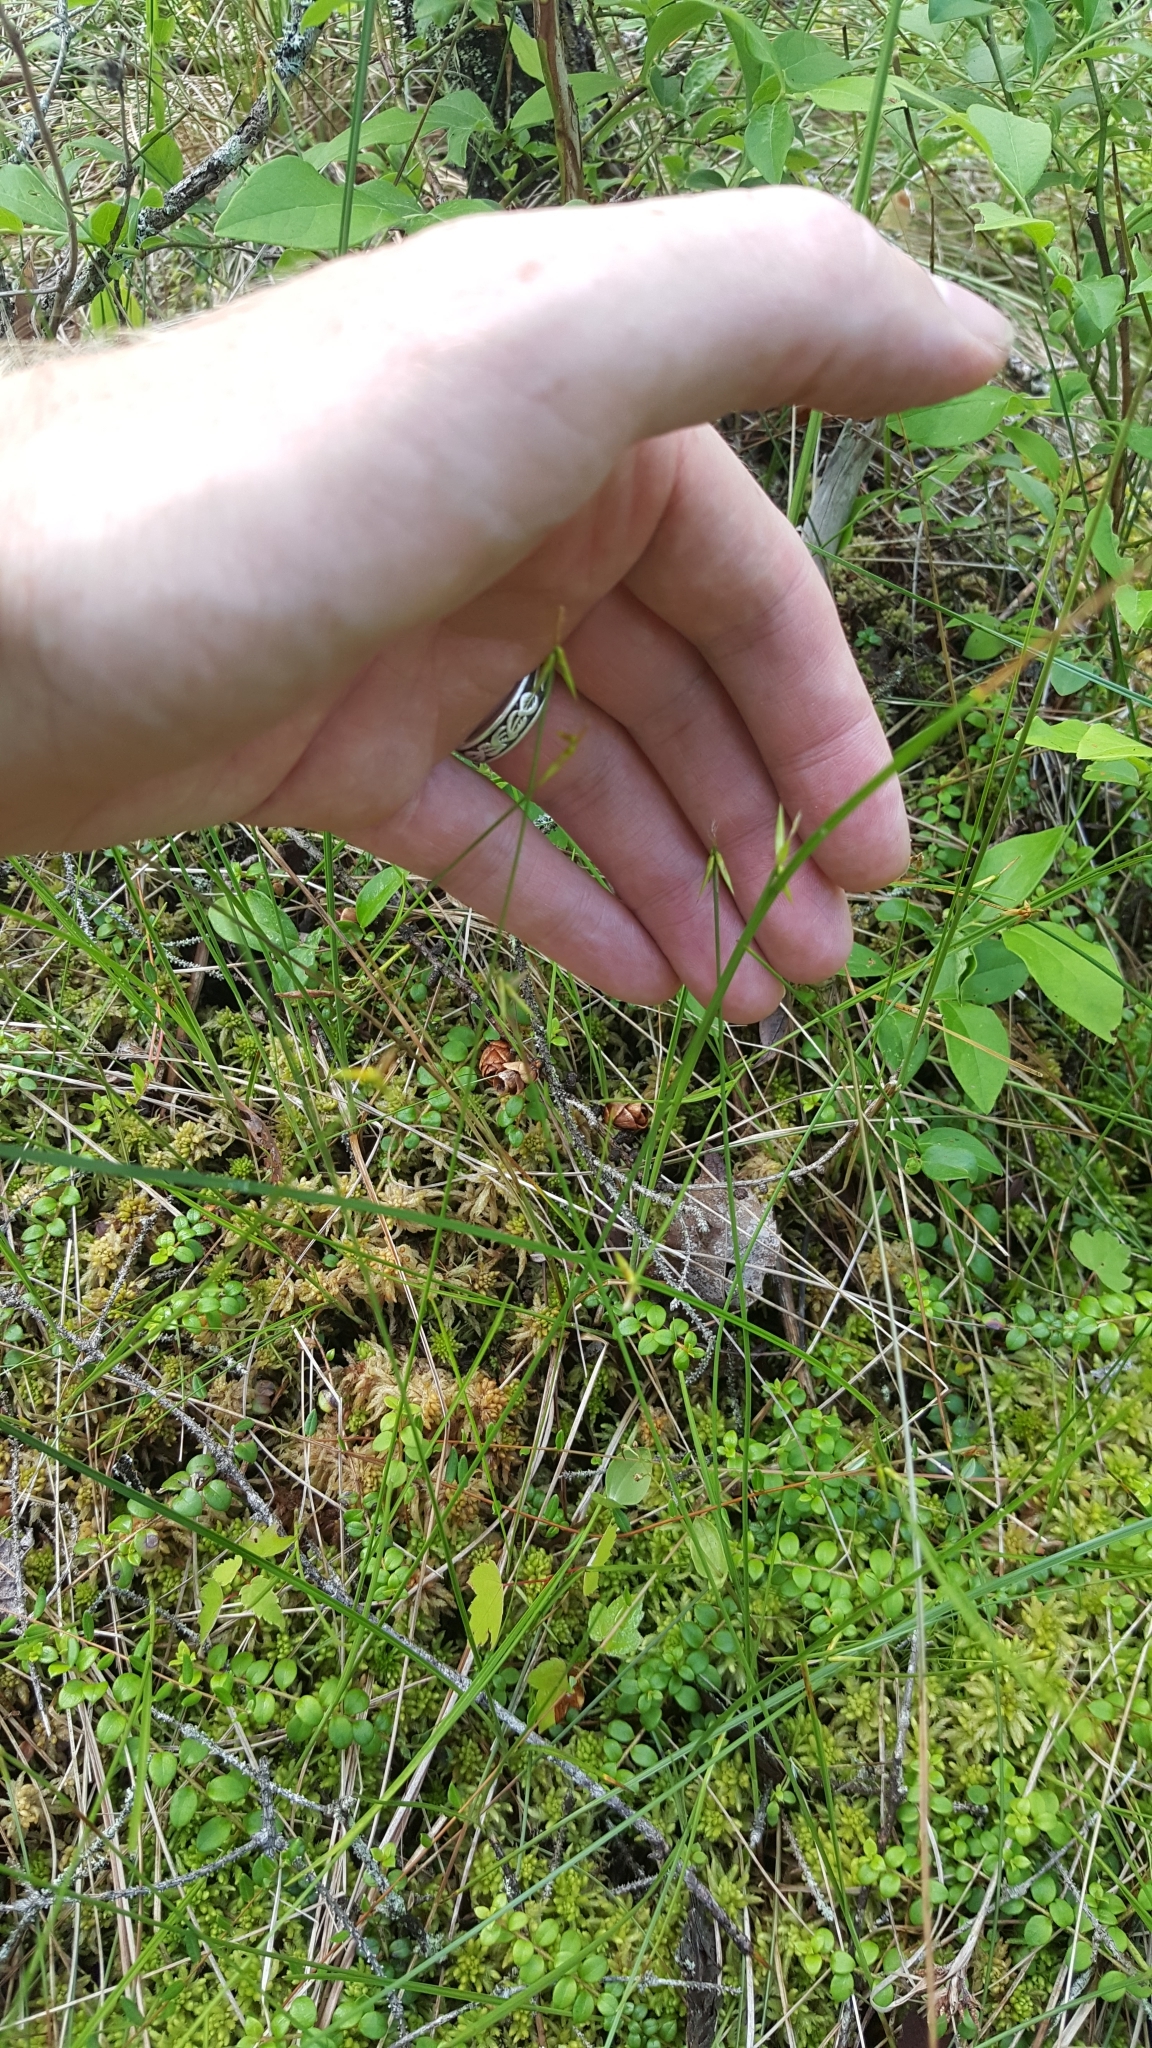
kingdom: Plantae
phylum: Tracheophyta
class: Liliopsida
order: Poales
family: Cyperaceae
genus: Carex
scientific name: Carex pauciflora
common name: Few-flowered sedge
